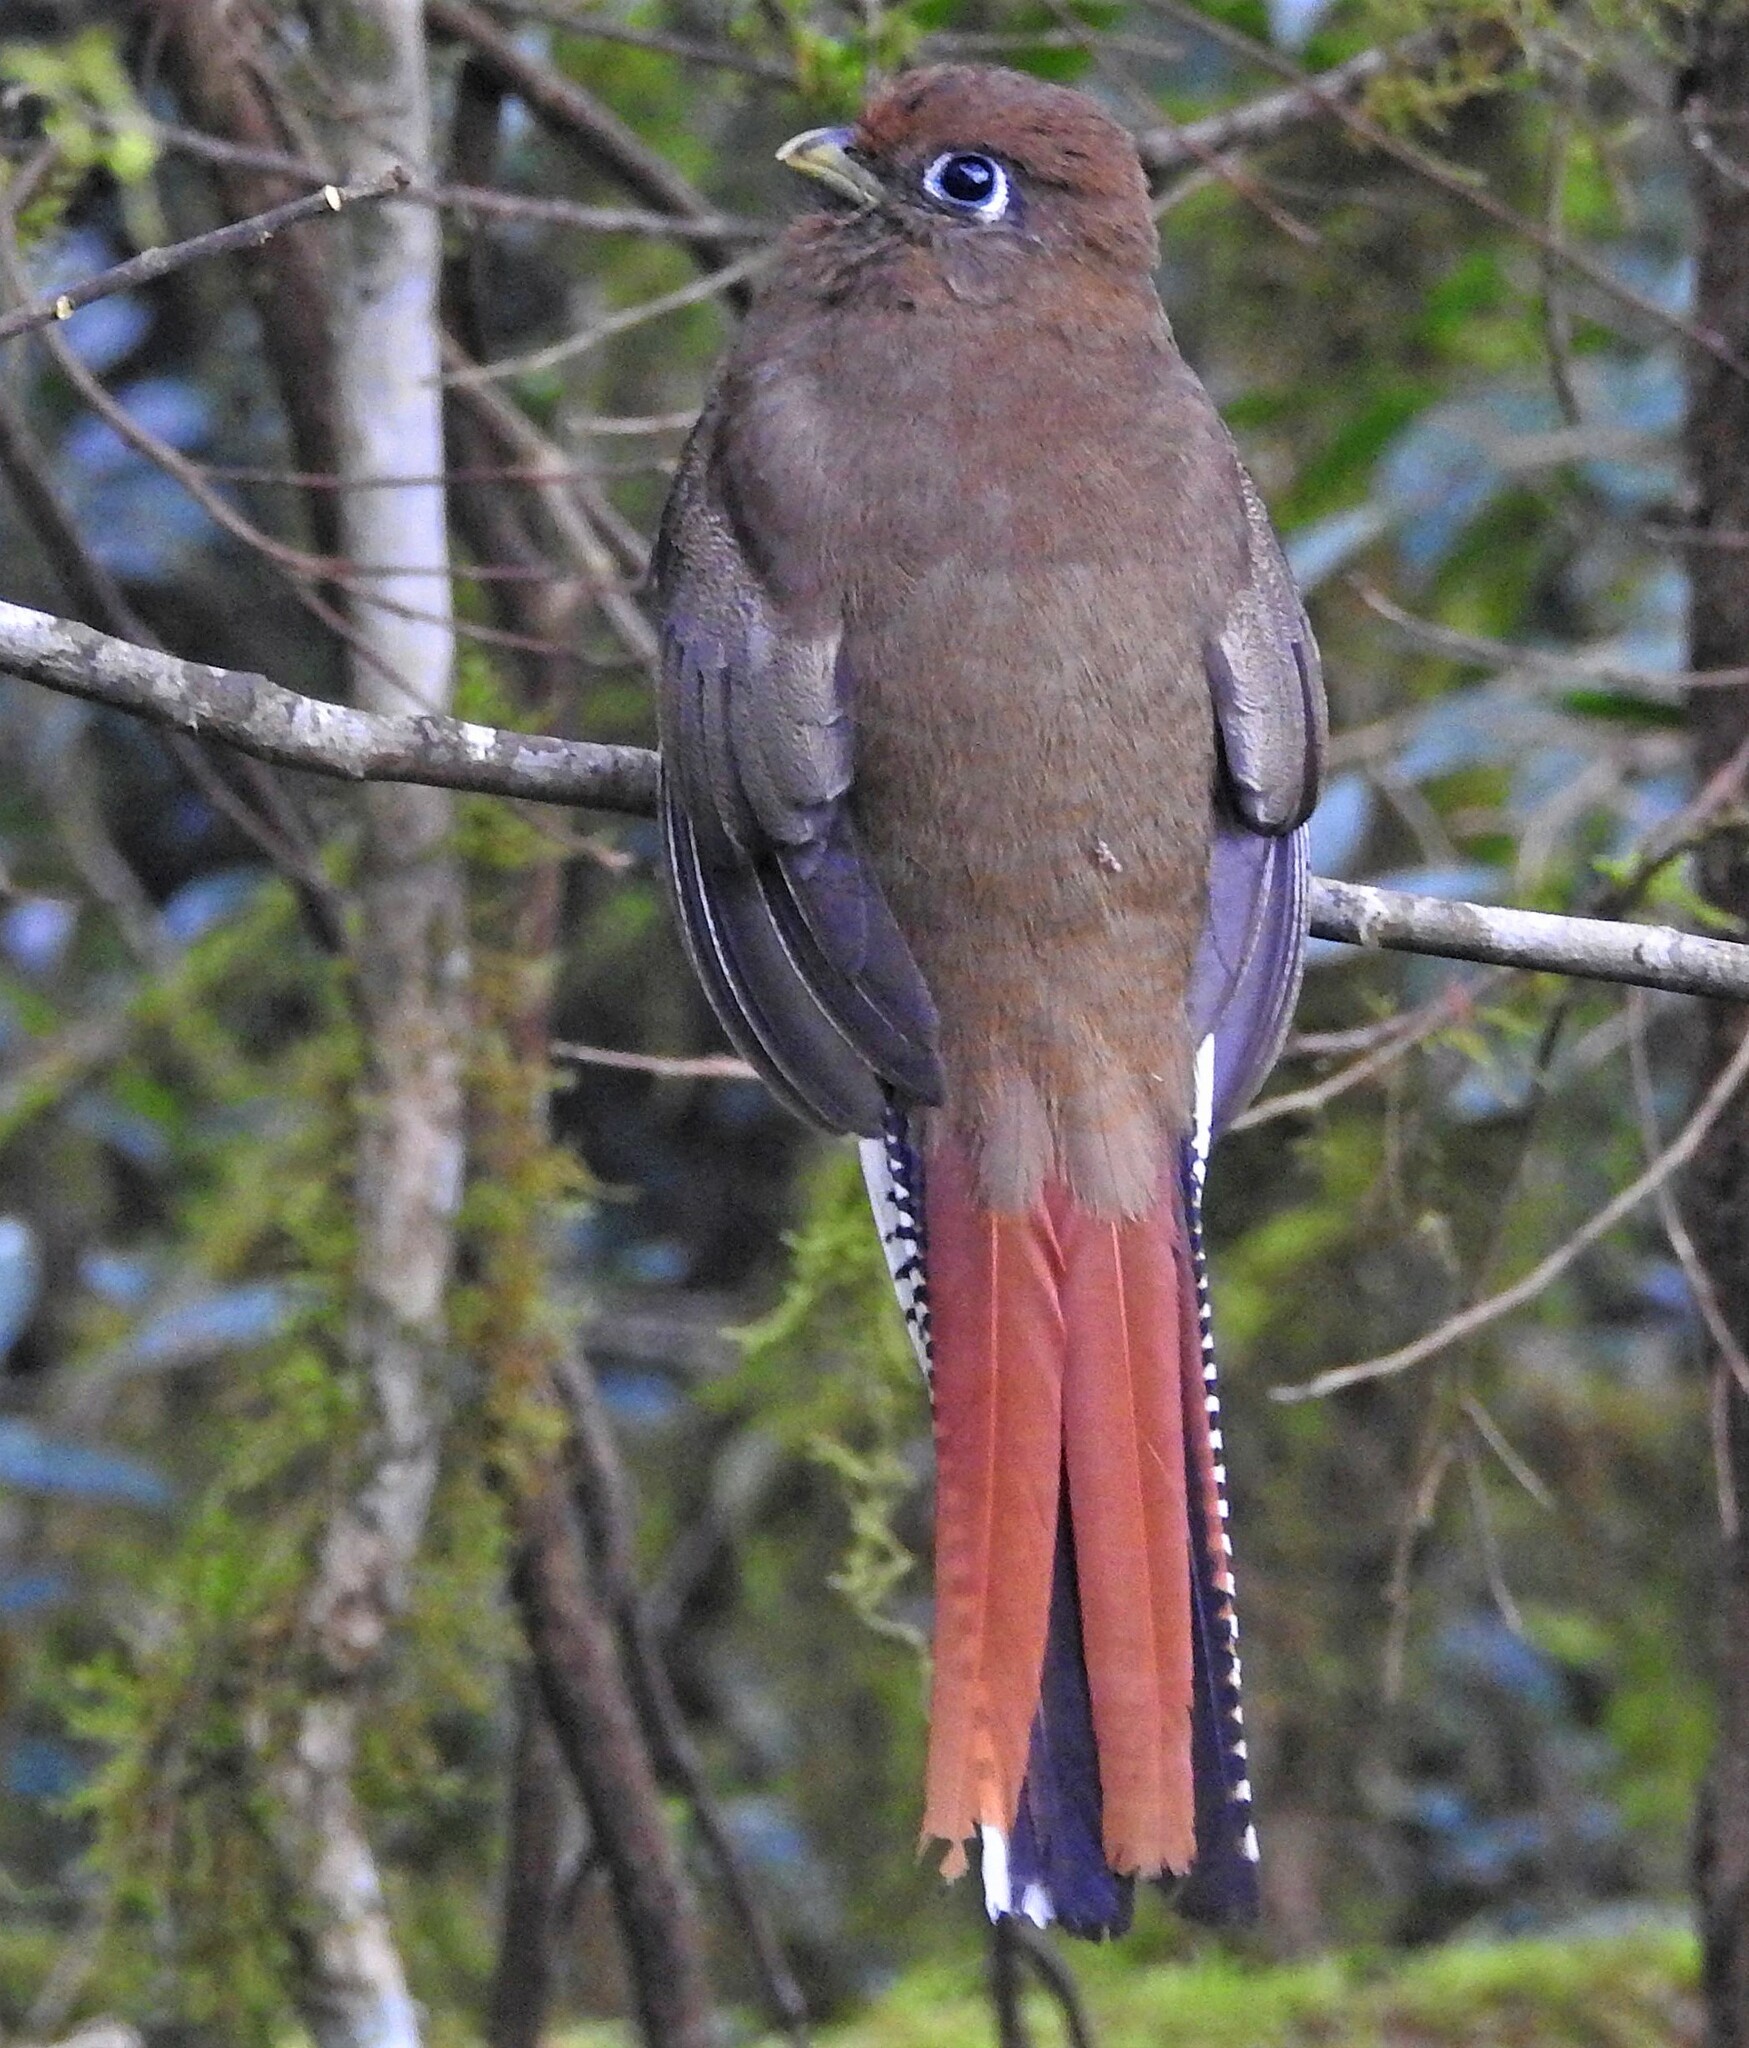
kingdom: Animalia
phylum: Chordata
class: Aves
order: Trogoniformes
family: Trogonidae
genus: Trogon
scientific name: Trogon rufus
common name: Black-throated trogon
